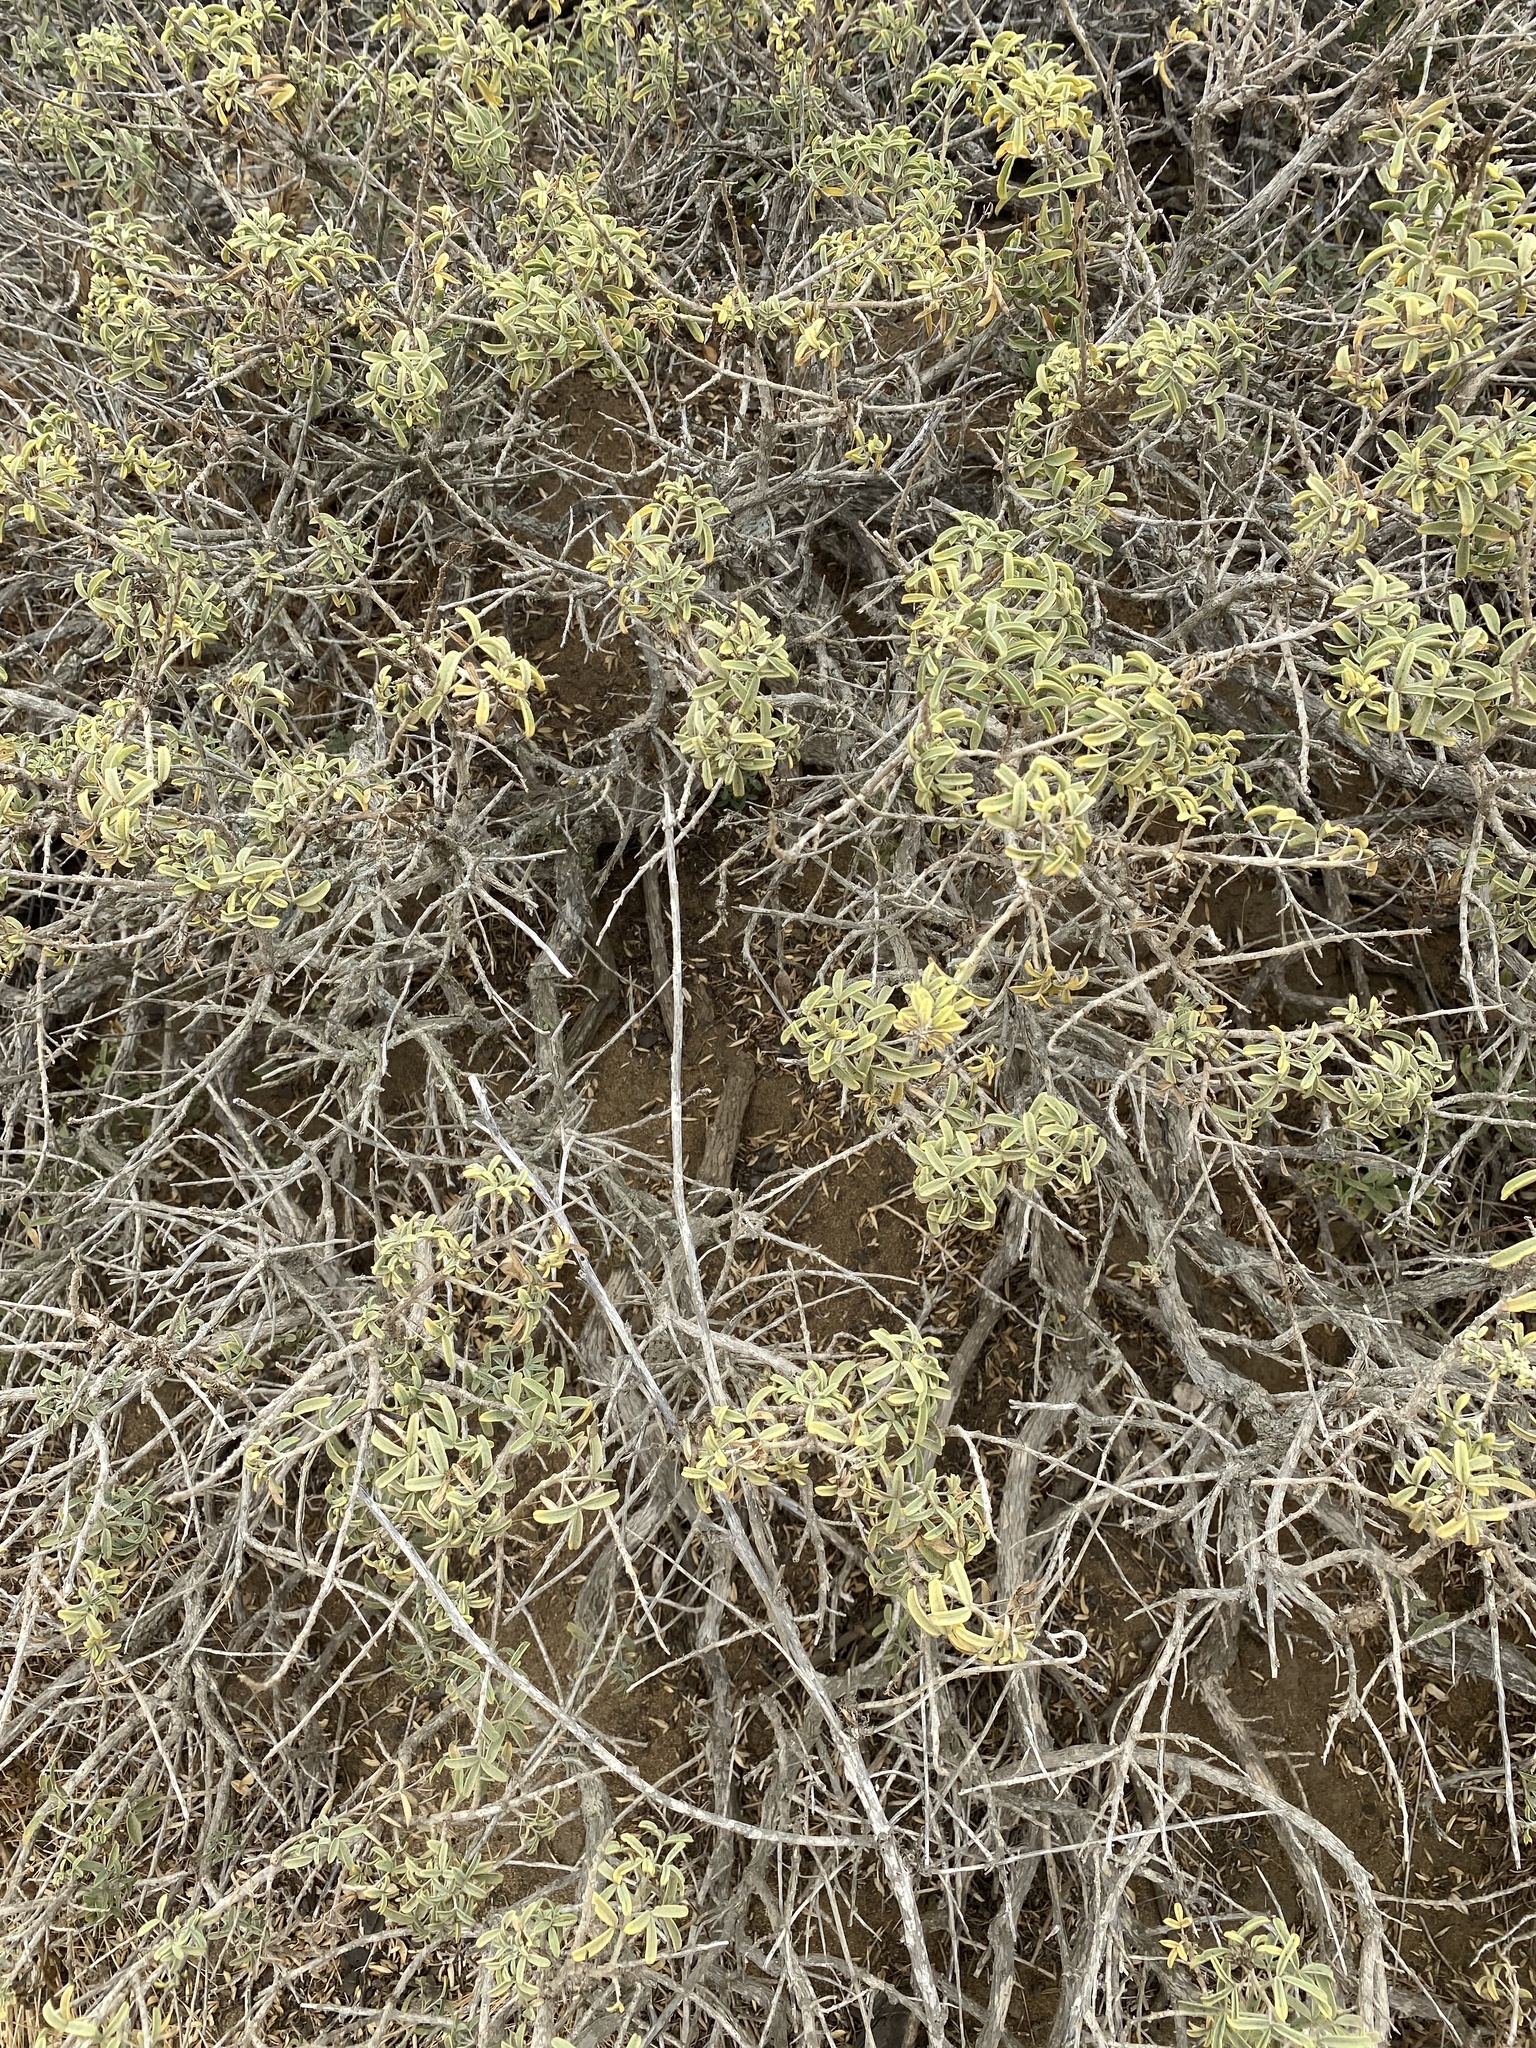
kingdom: Plantae
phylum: Tracheophyta
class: Magnoliopsida
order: Brassicales
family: Cleomaceae
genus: Cleomella
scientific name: Cleomella arborea
